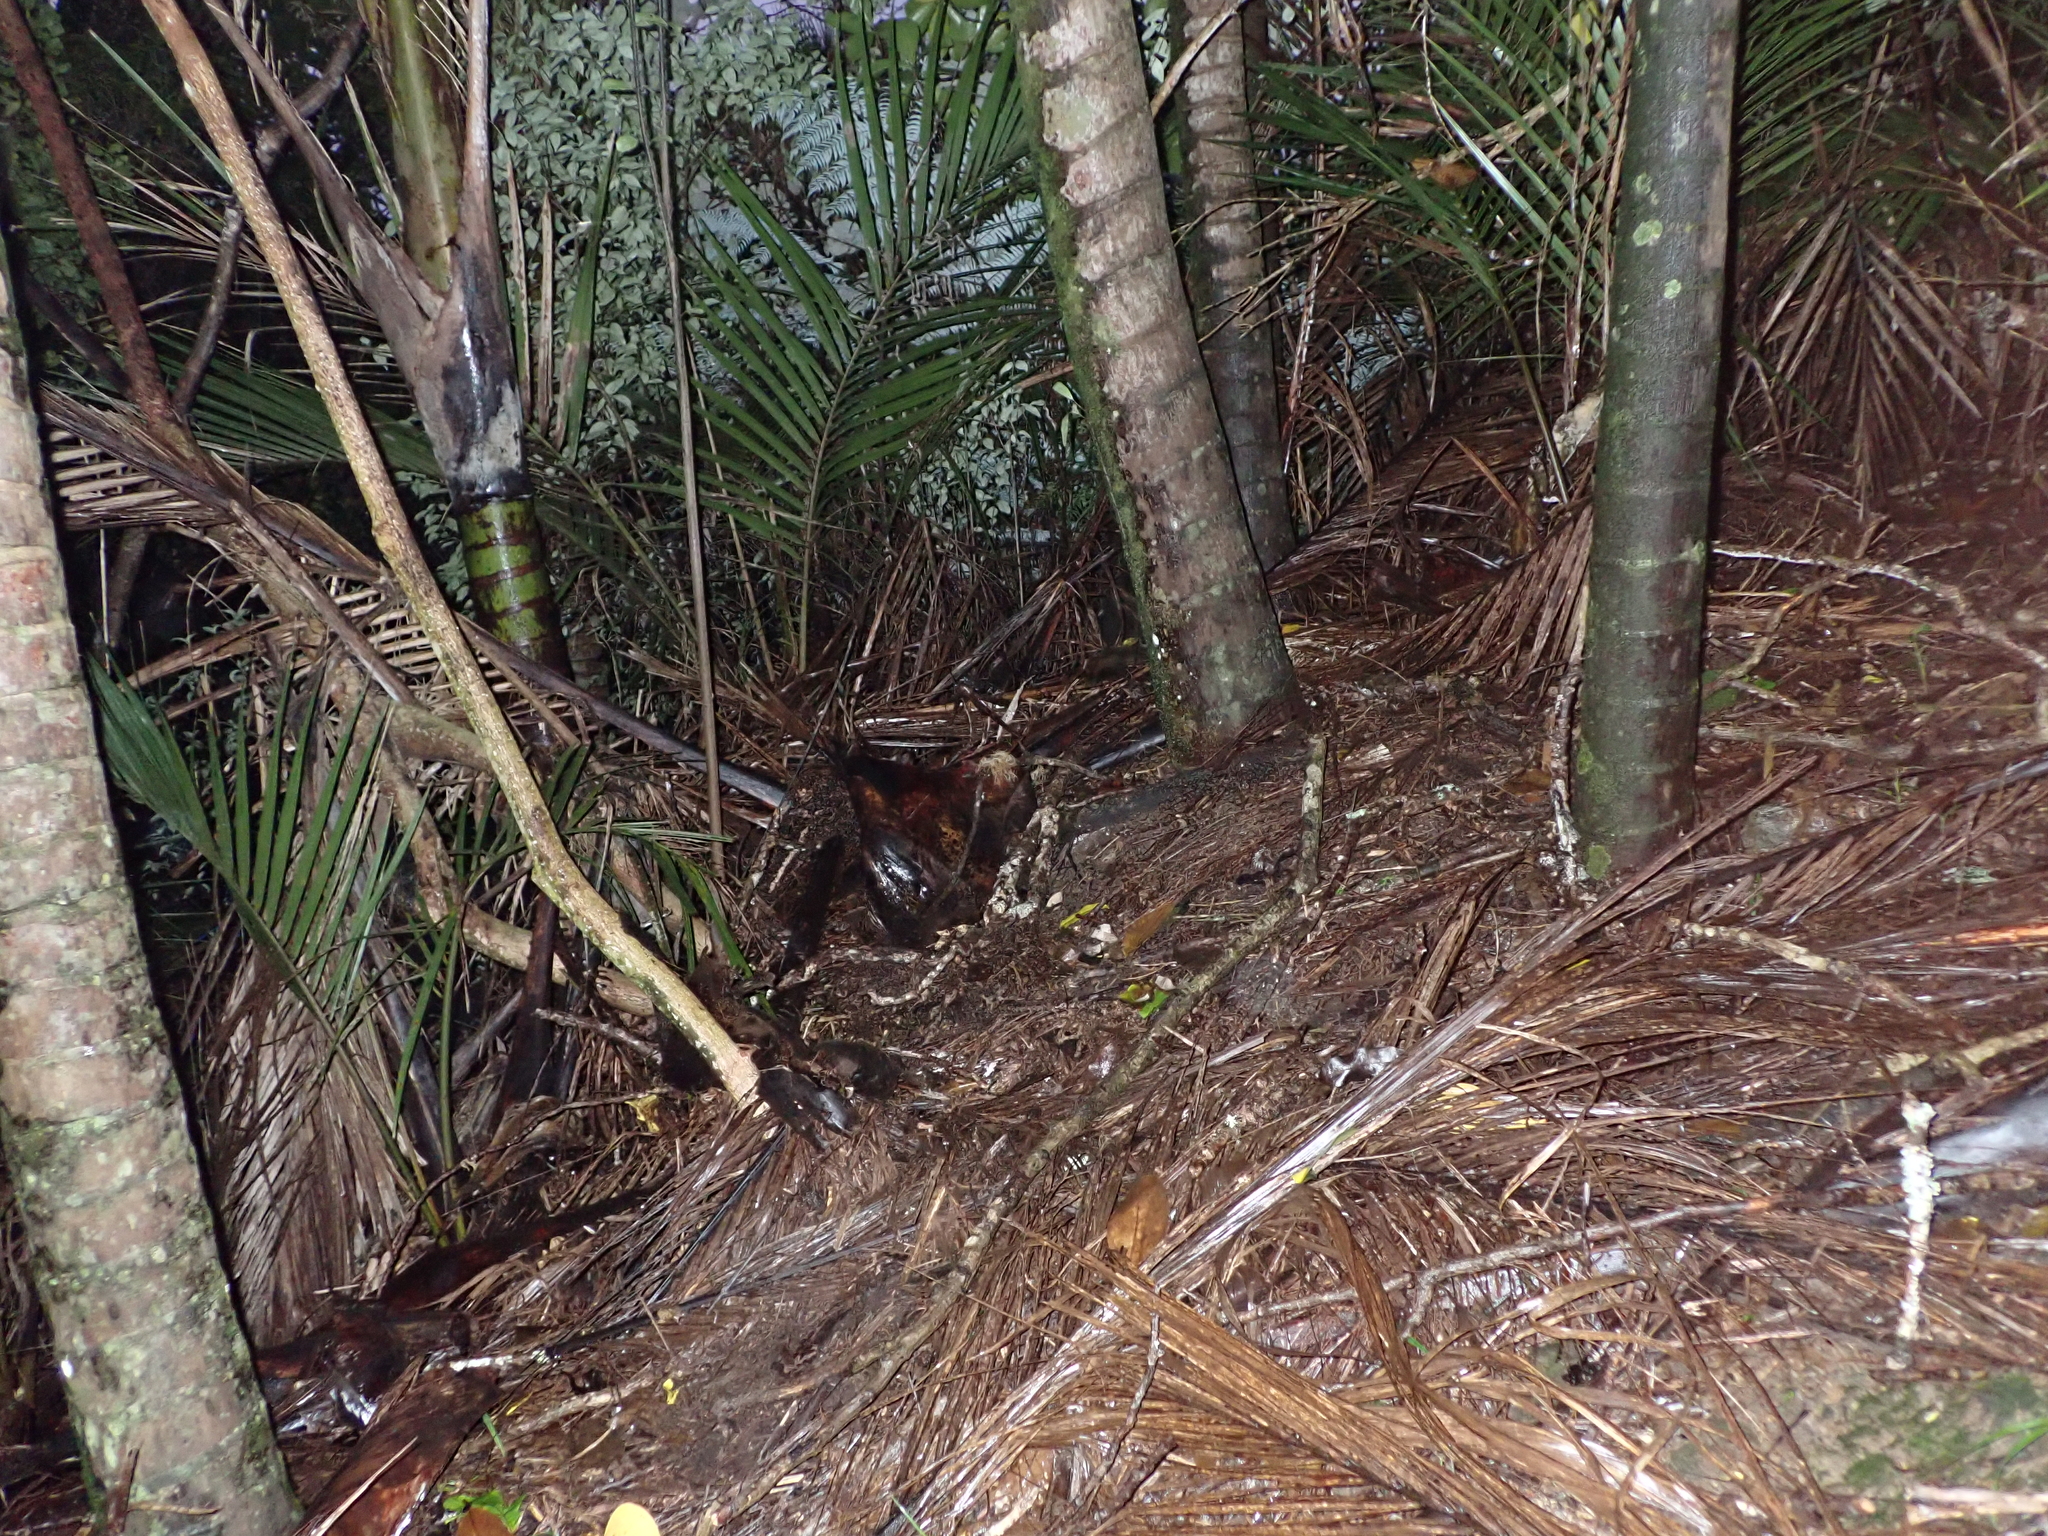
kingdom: Animalia
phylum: Onychophora
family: Peripatopsidae
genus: Peripatoides
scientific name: Peripatoides
